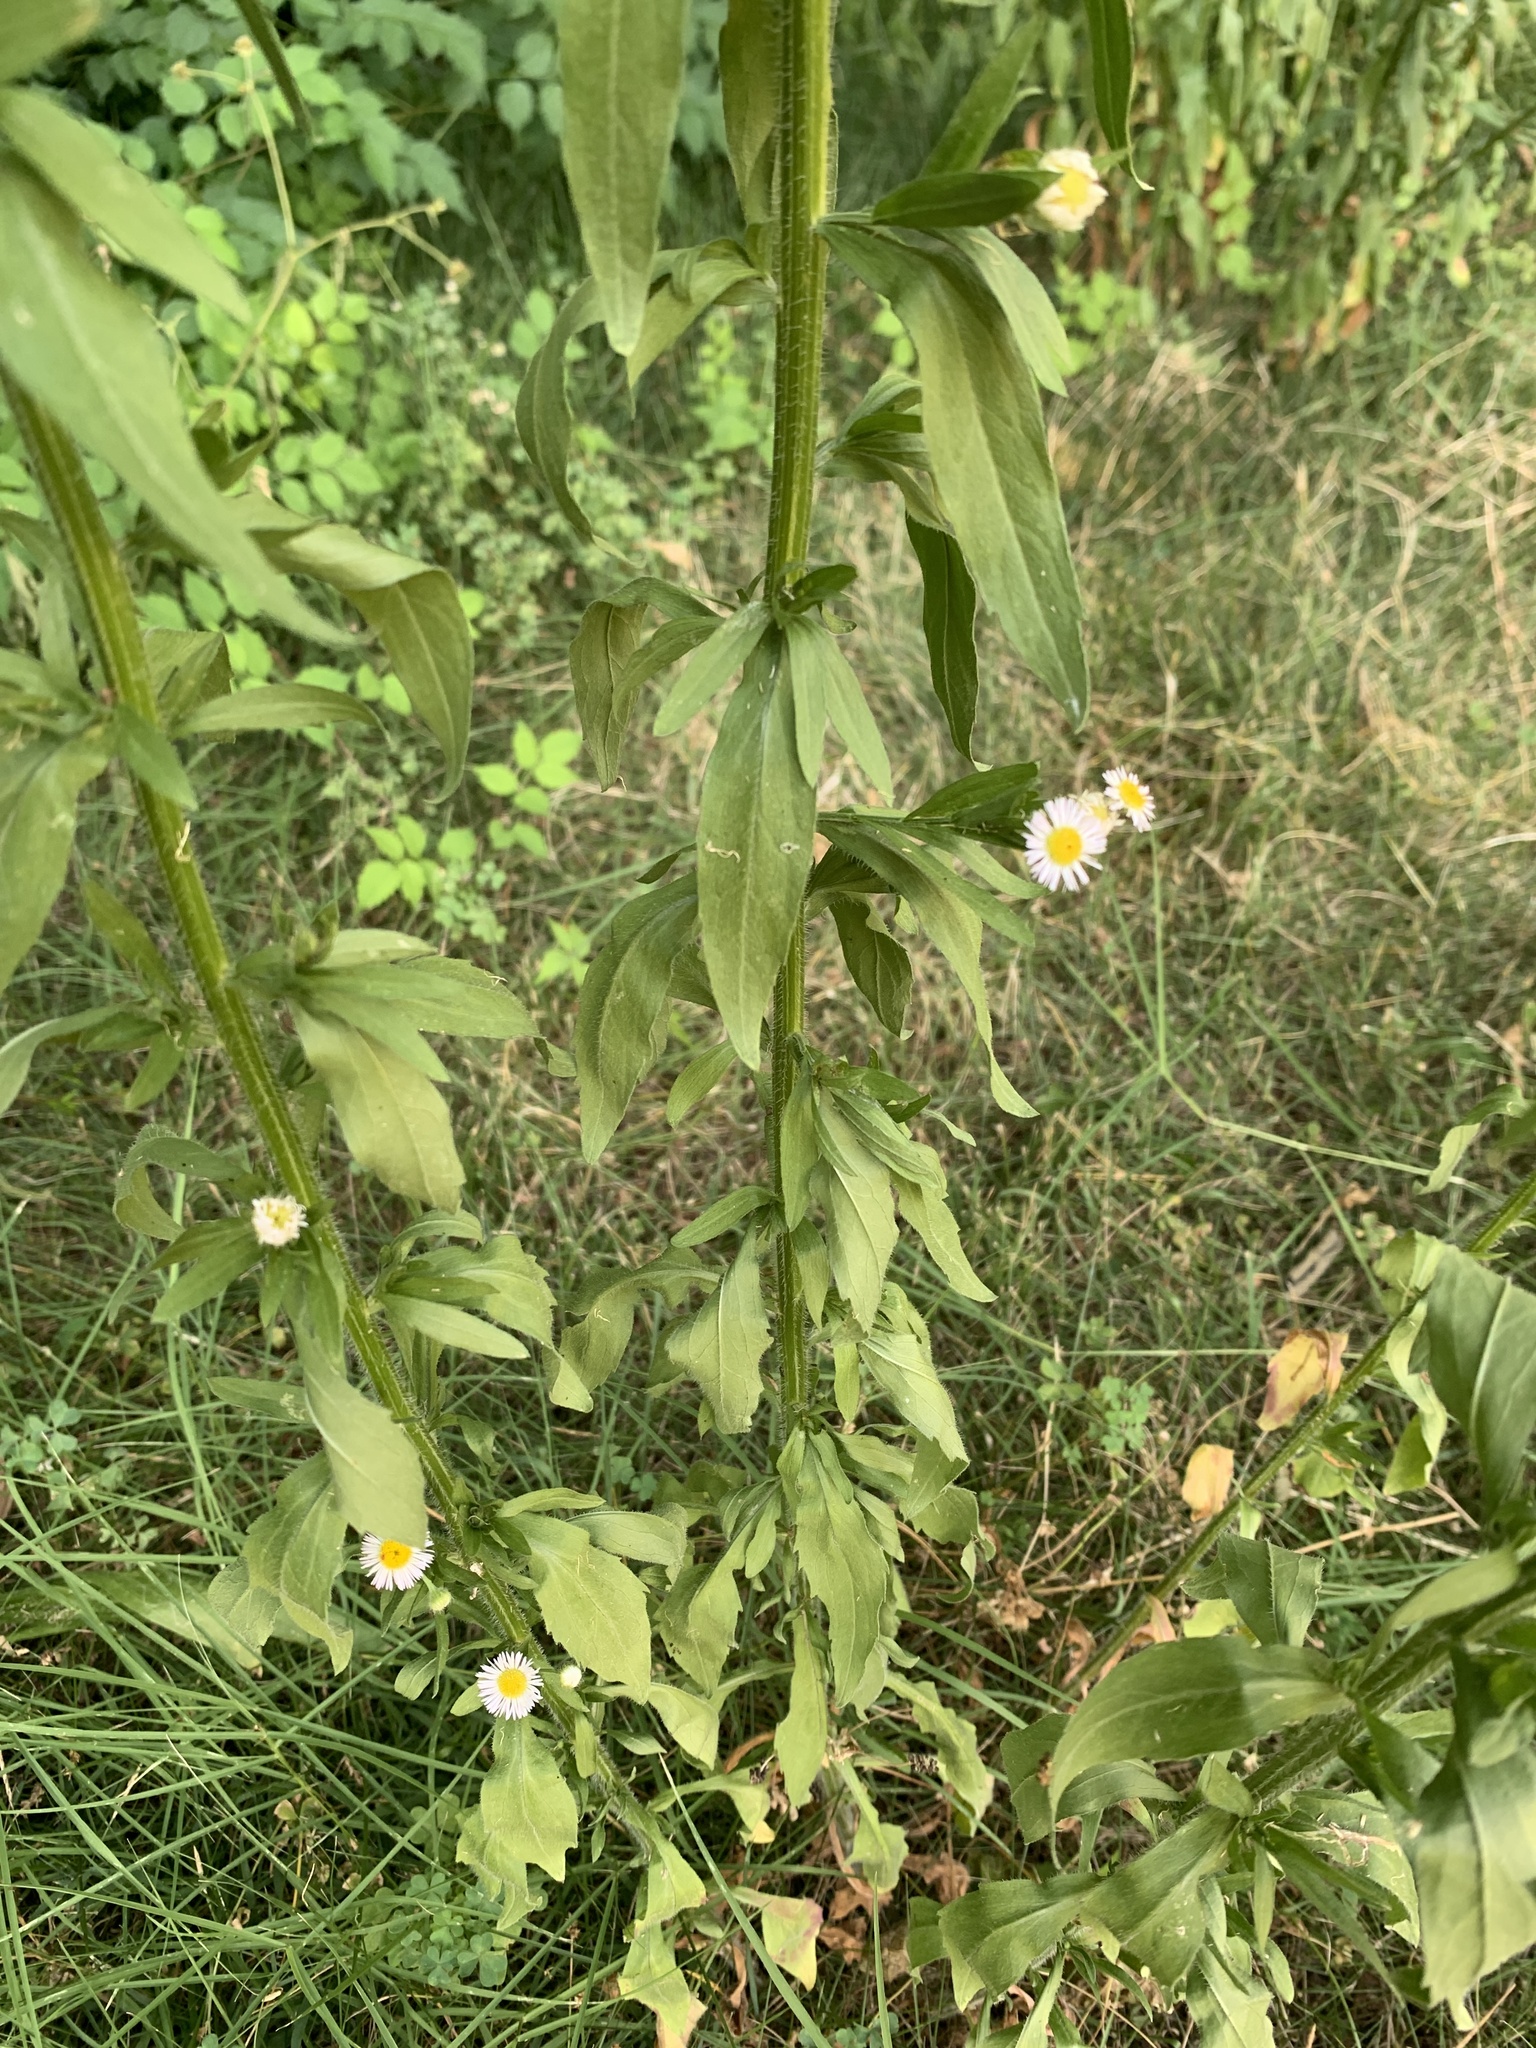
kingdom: Plantae
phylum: Tracheophyta
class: Magnoliopsida
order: Asterales
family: Asteraceae
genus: Erigeron
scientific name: Erigeron strigosus
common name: Common eastern fleabane
